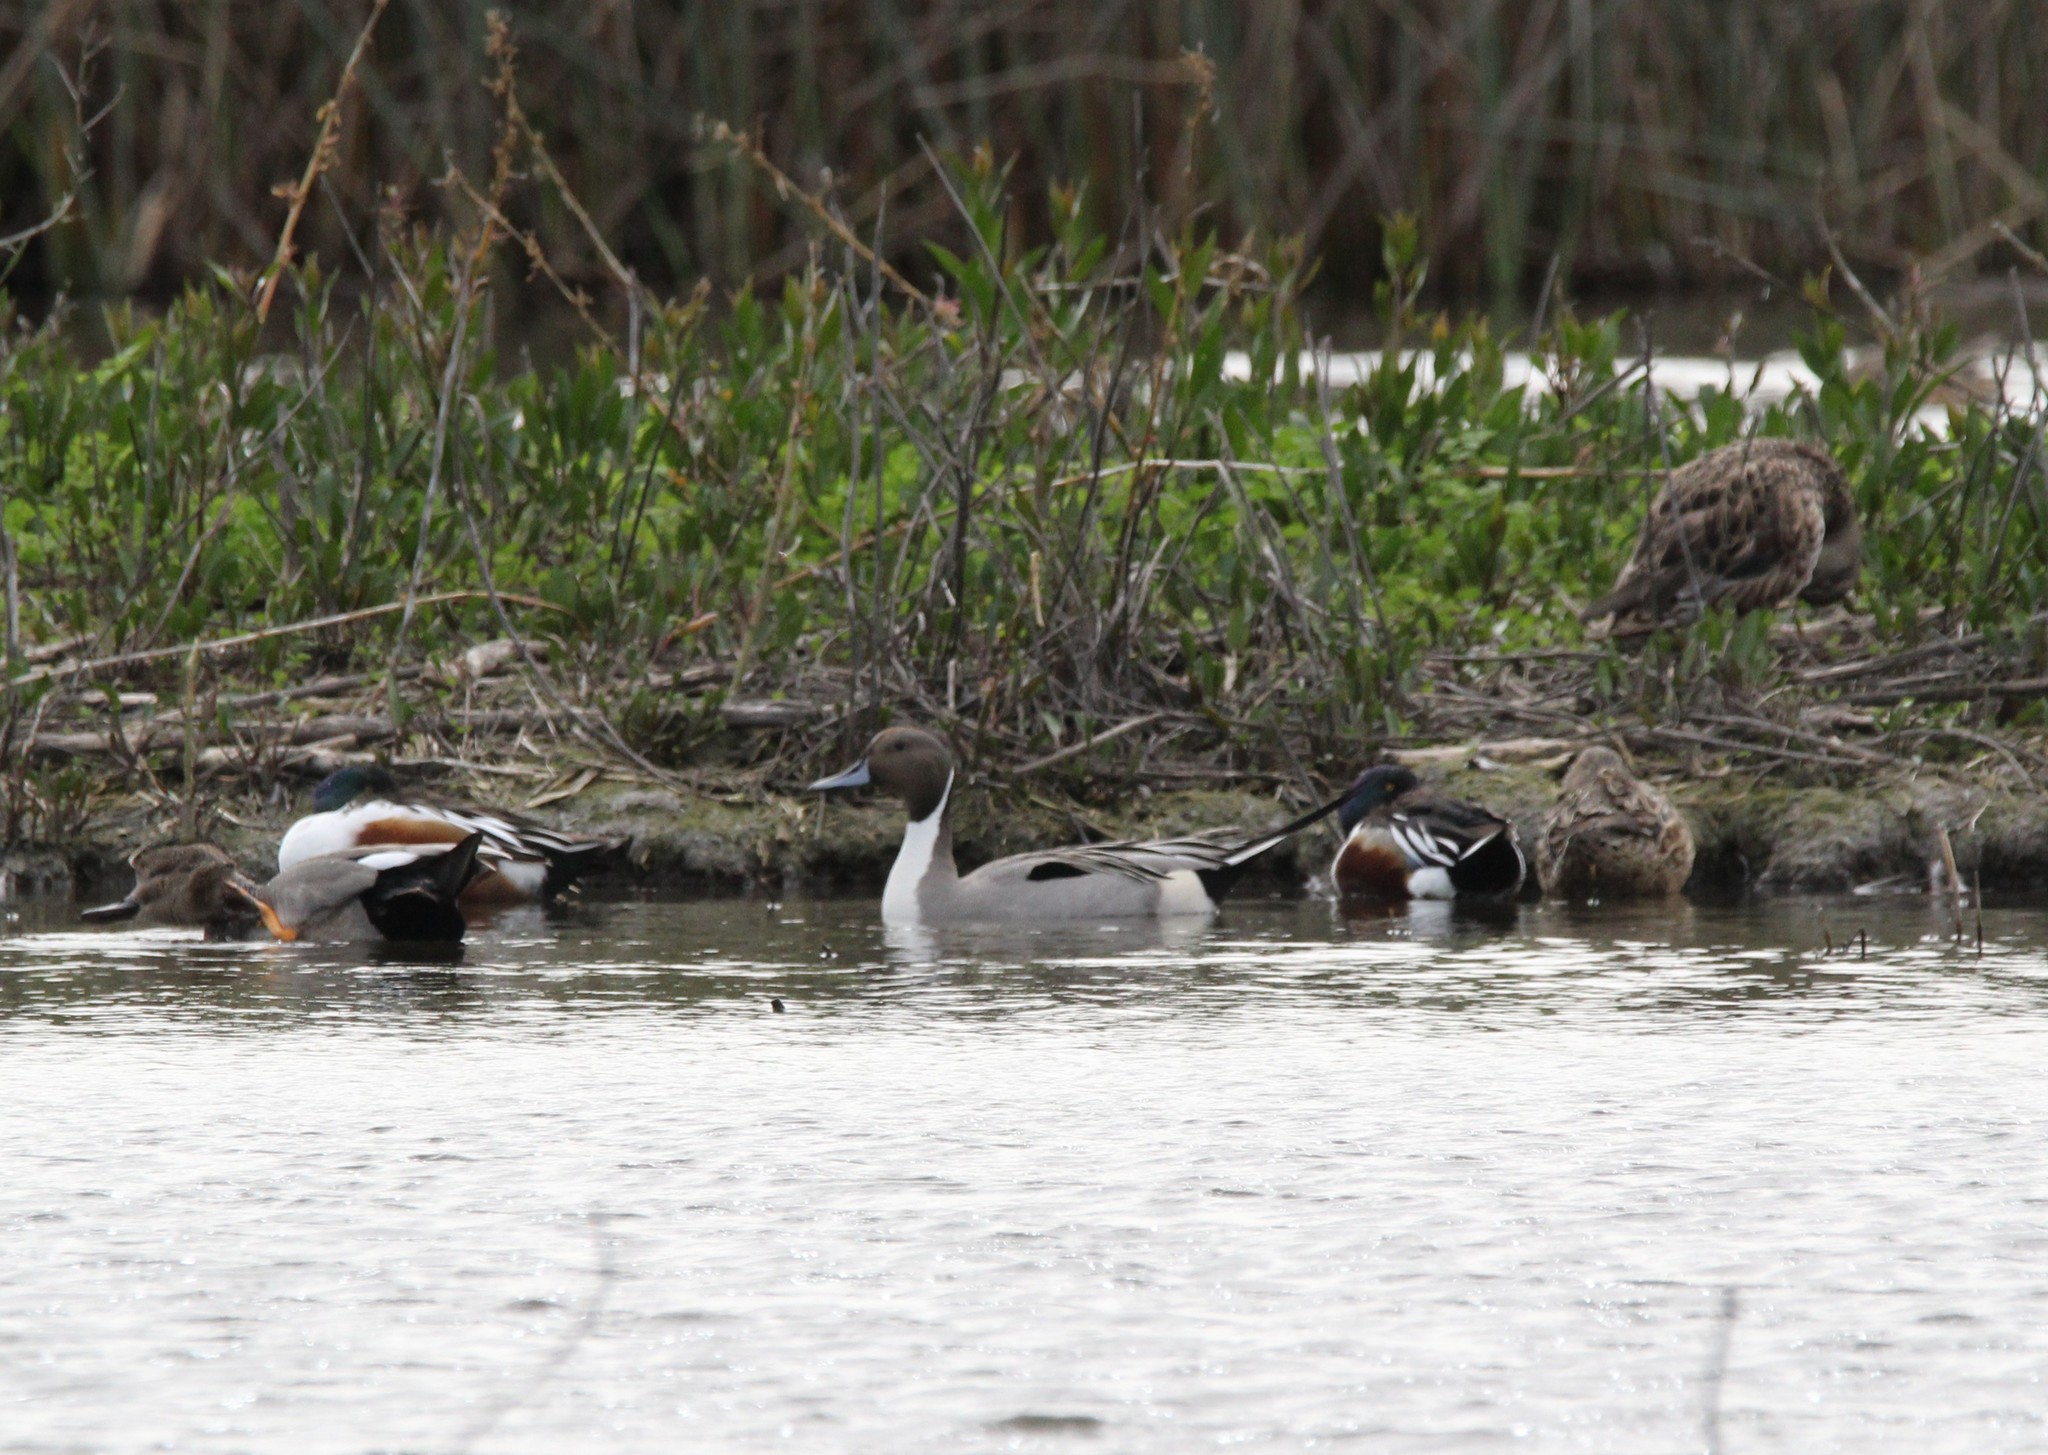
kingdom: Animalia
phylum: Chordata
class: Aves
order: Anseriformes
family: Anatidae
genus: Anas
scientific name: Anas acuta
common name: Northern pintail
